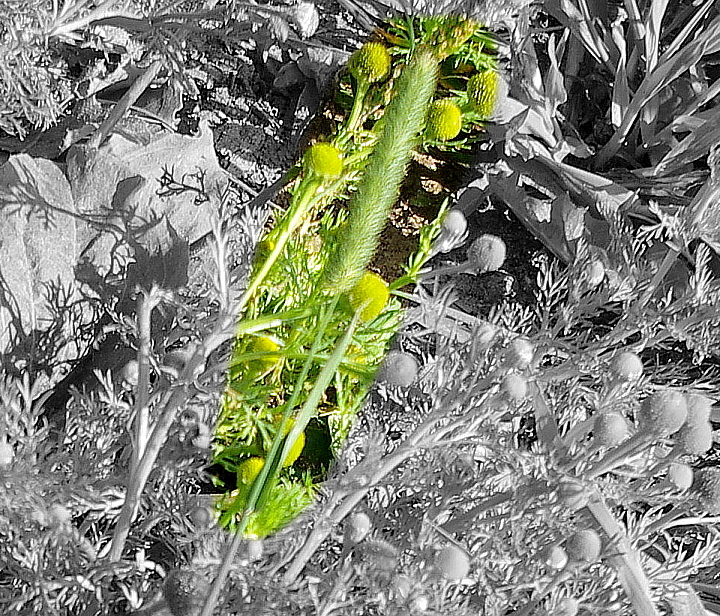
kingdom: Plantae
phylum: Tracheophyta
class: Liliopsida
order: Poales
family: Poaceae
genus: Phleum
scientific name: Phleum pratense
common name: Timothy grass
